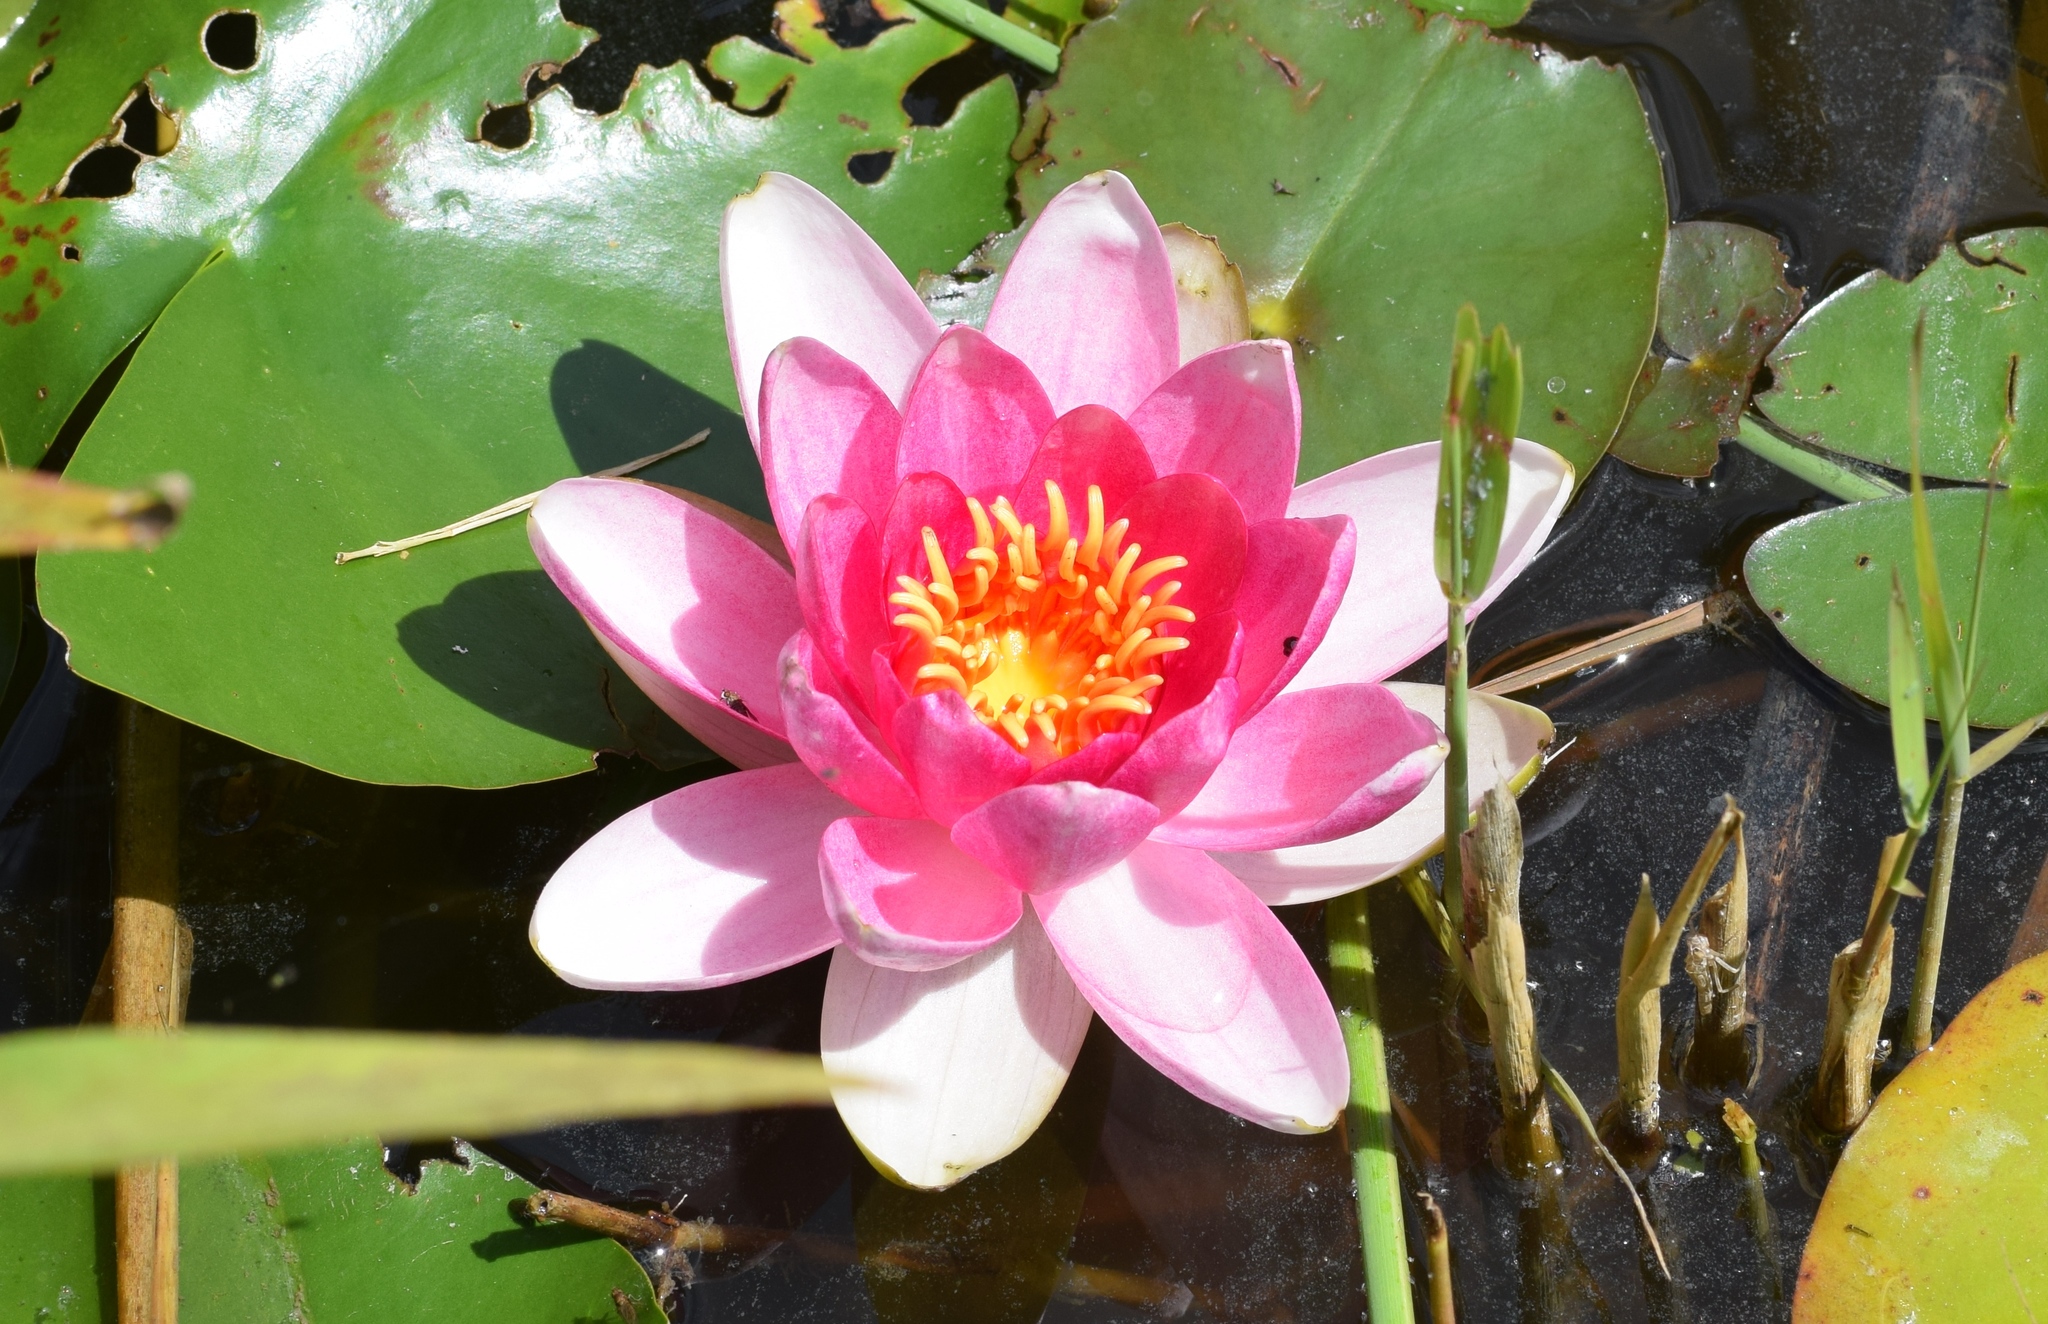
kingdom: Plantae
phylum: Tracheophyta
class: Magnoliopsida
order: Nymphaeales
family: Nymphaeaceae
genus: Nymphaea
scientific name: Nymphaea khurooi
